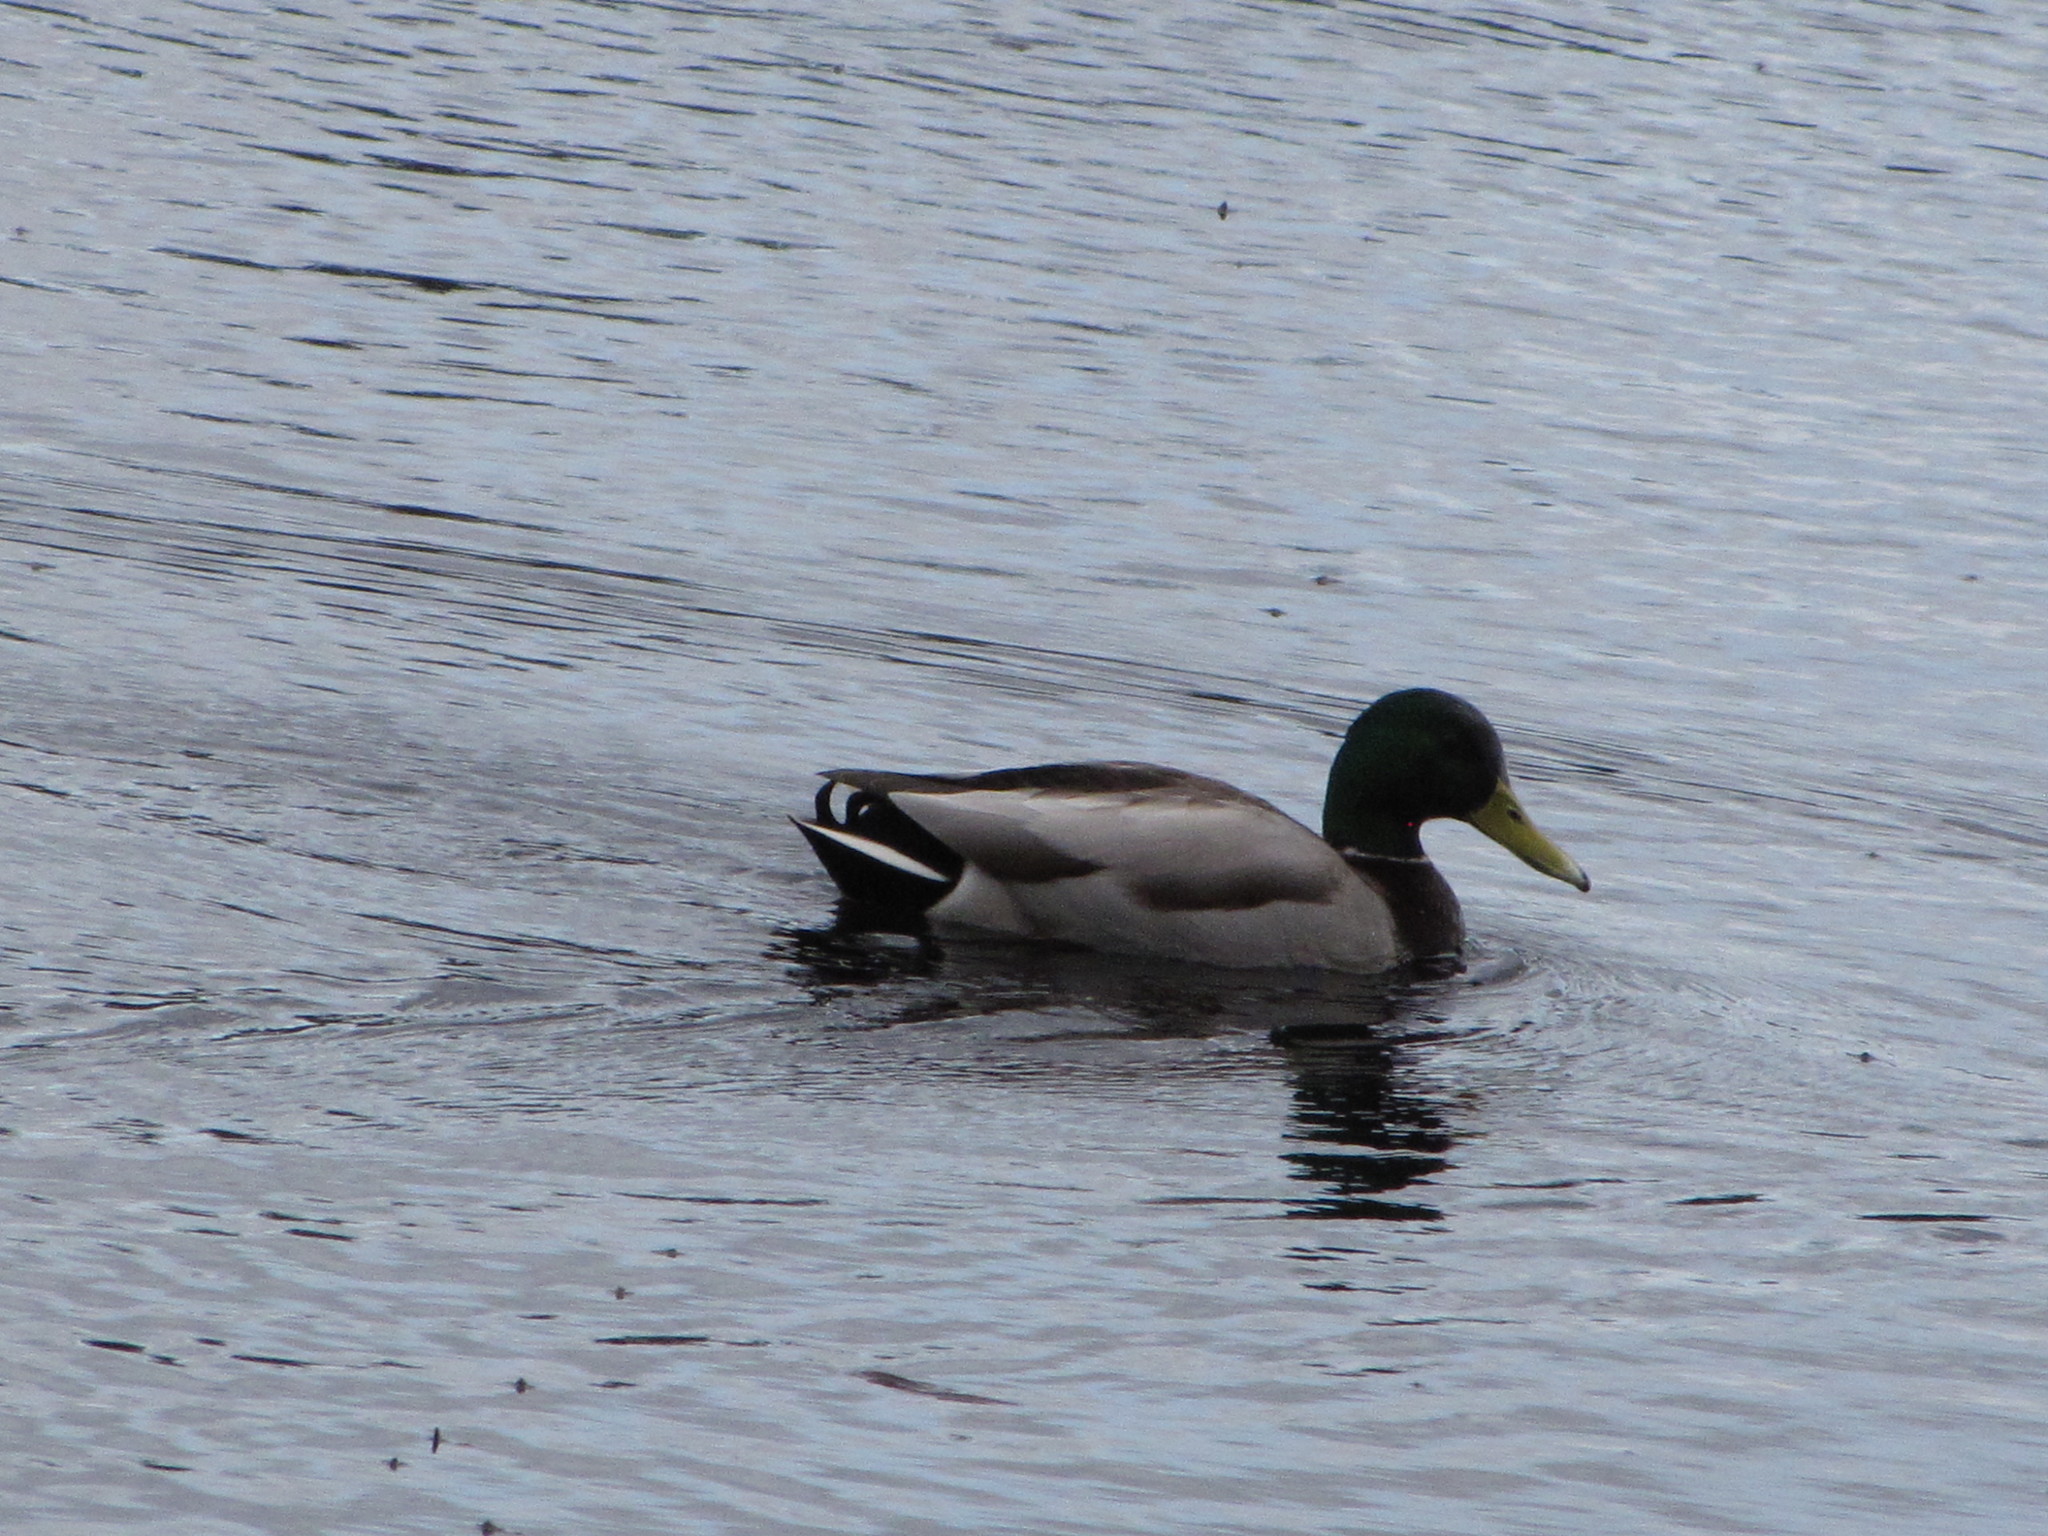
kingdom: Animalia
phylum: Chordata
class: Aves
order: Anseriformes
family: Anatidae
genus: Anas
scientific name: Anas platyrhynchos
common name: Mallard
